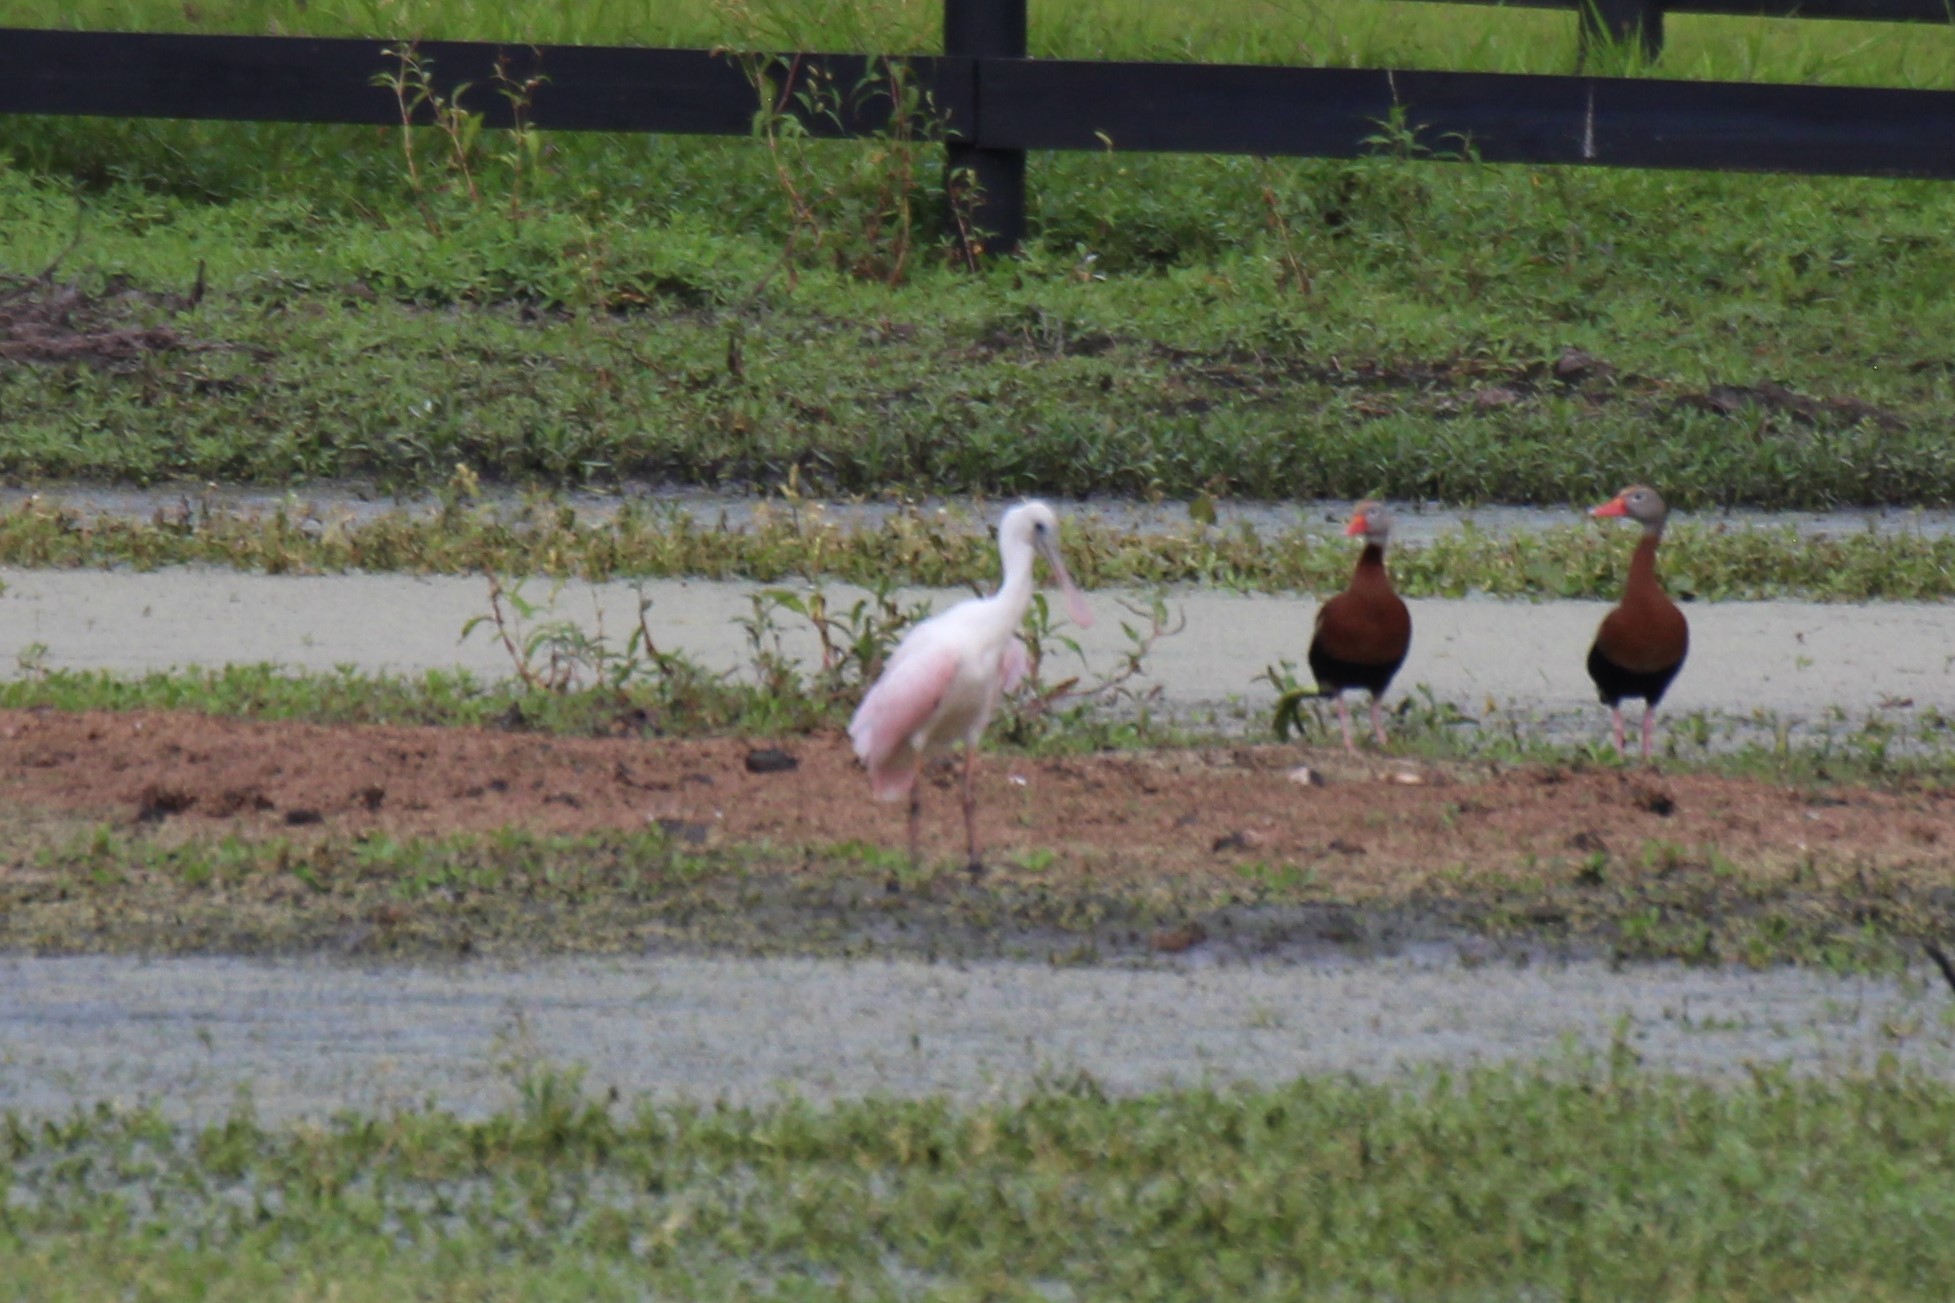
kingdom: Animalia
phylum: Chordata
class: Aves
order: Pelecaniformes
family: Threskiornithidae
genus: Platalea
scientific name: Platalea ajaja
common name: Roseate spoonbill
